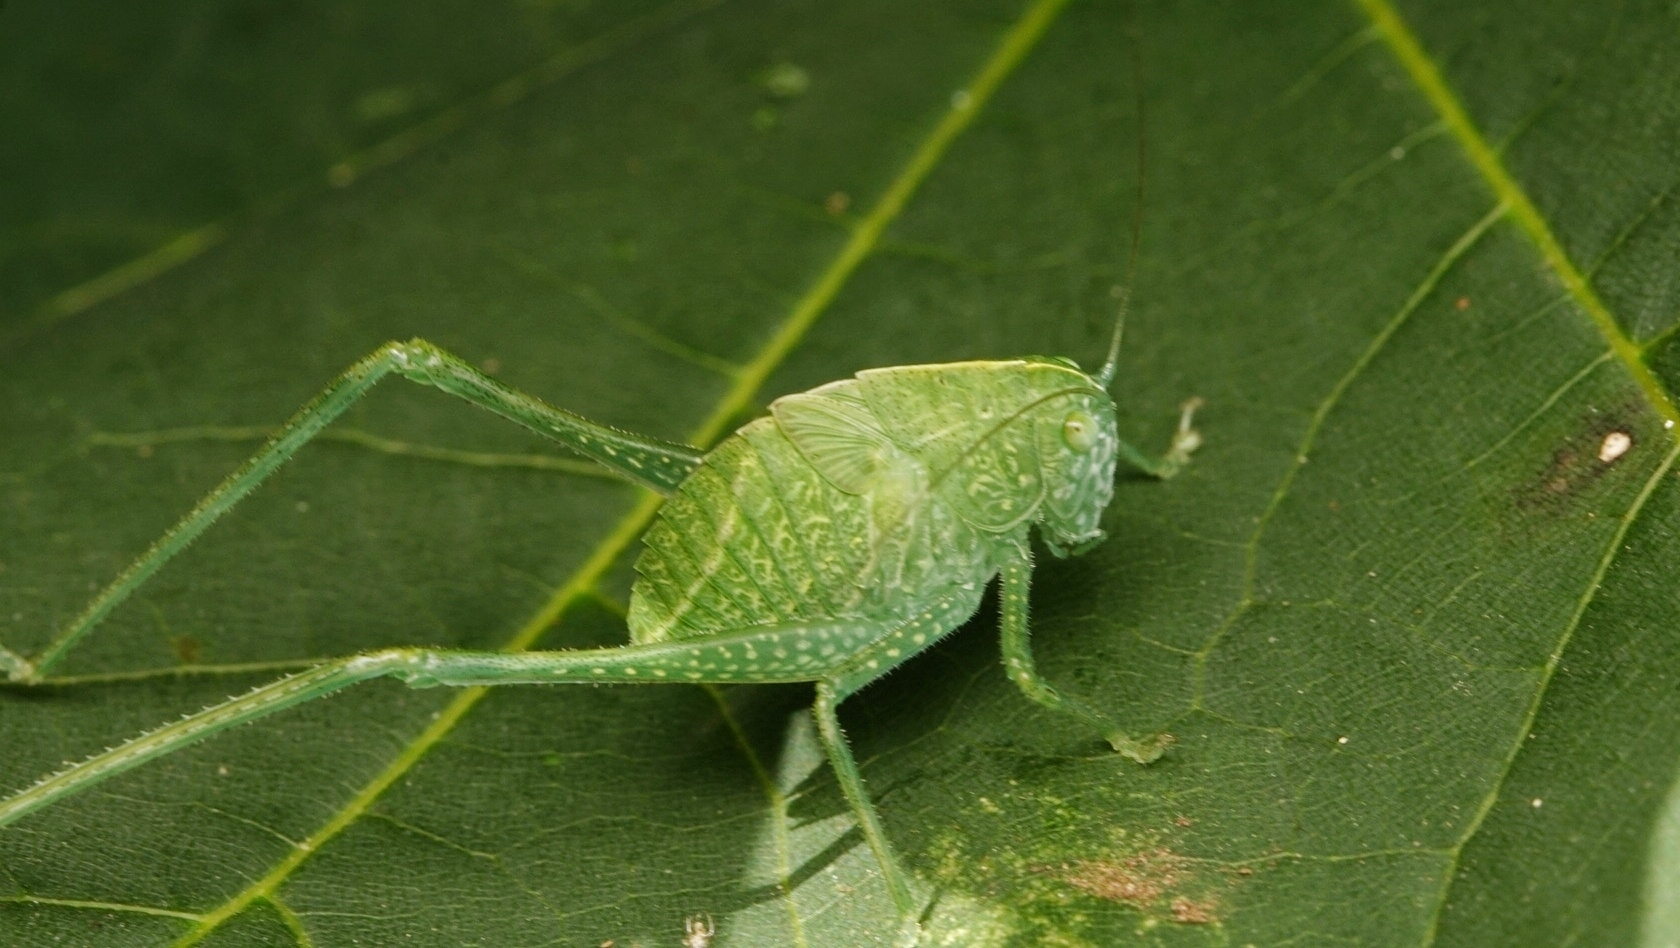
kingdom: Animalia
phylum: Arthropoda
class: Insecta
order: Orthoptera
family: Tettigoniidae
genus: Microcentrum
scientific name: Microcentrum rhombifolium
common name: Broad-winged katydid
